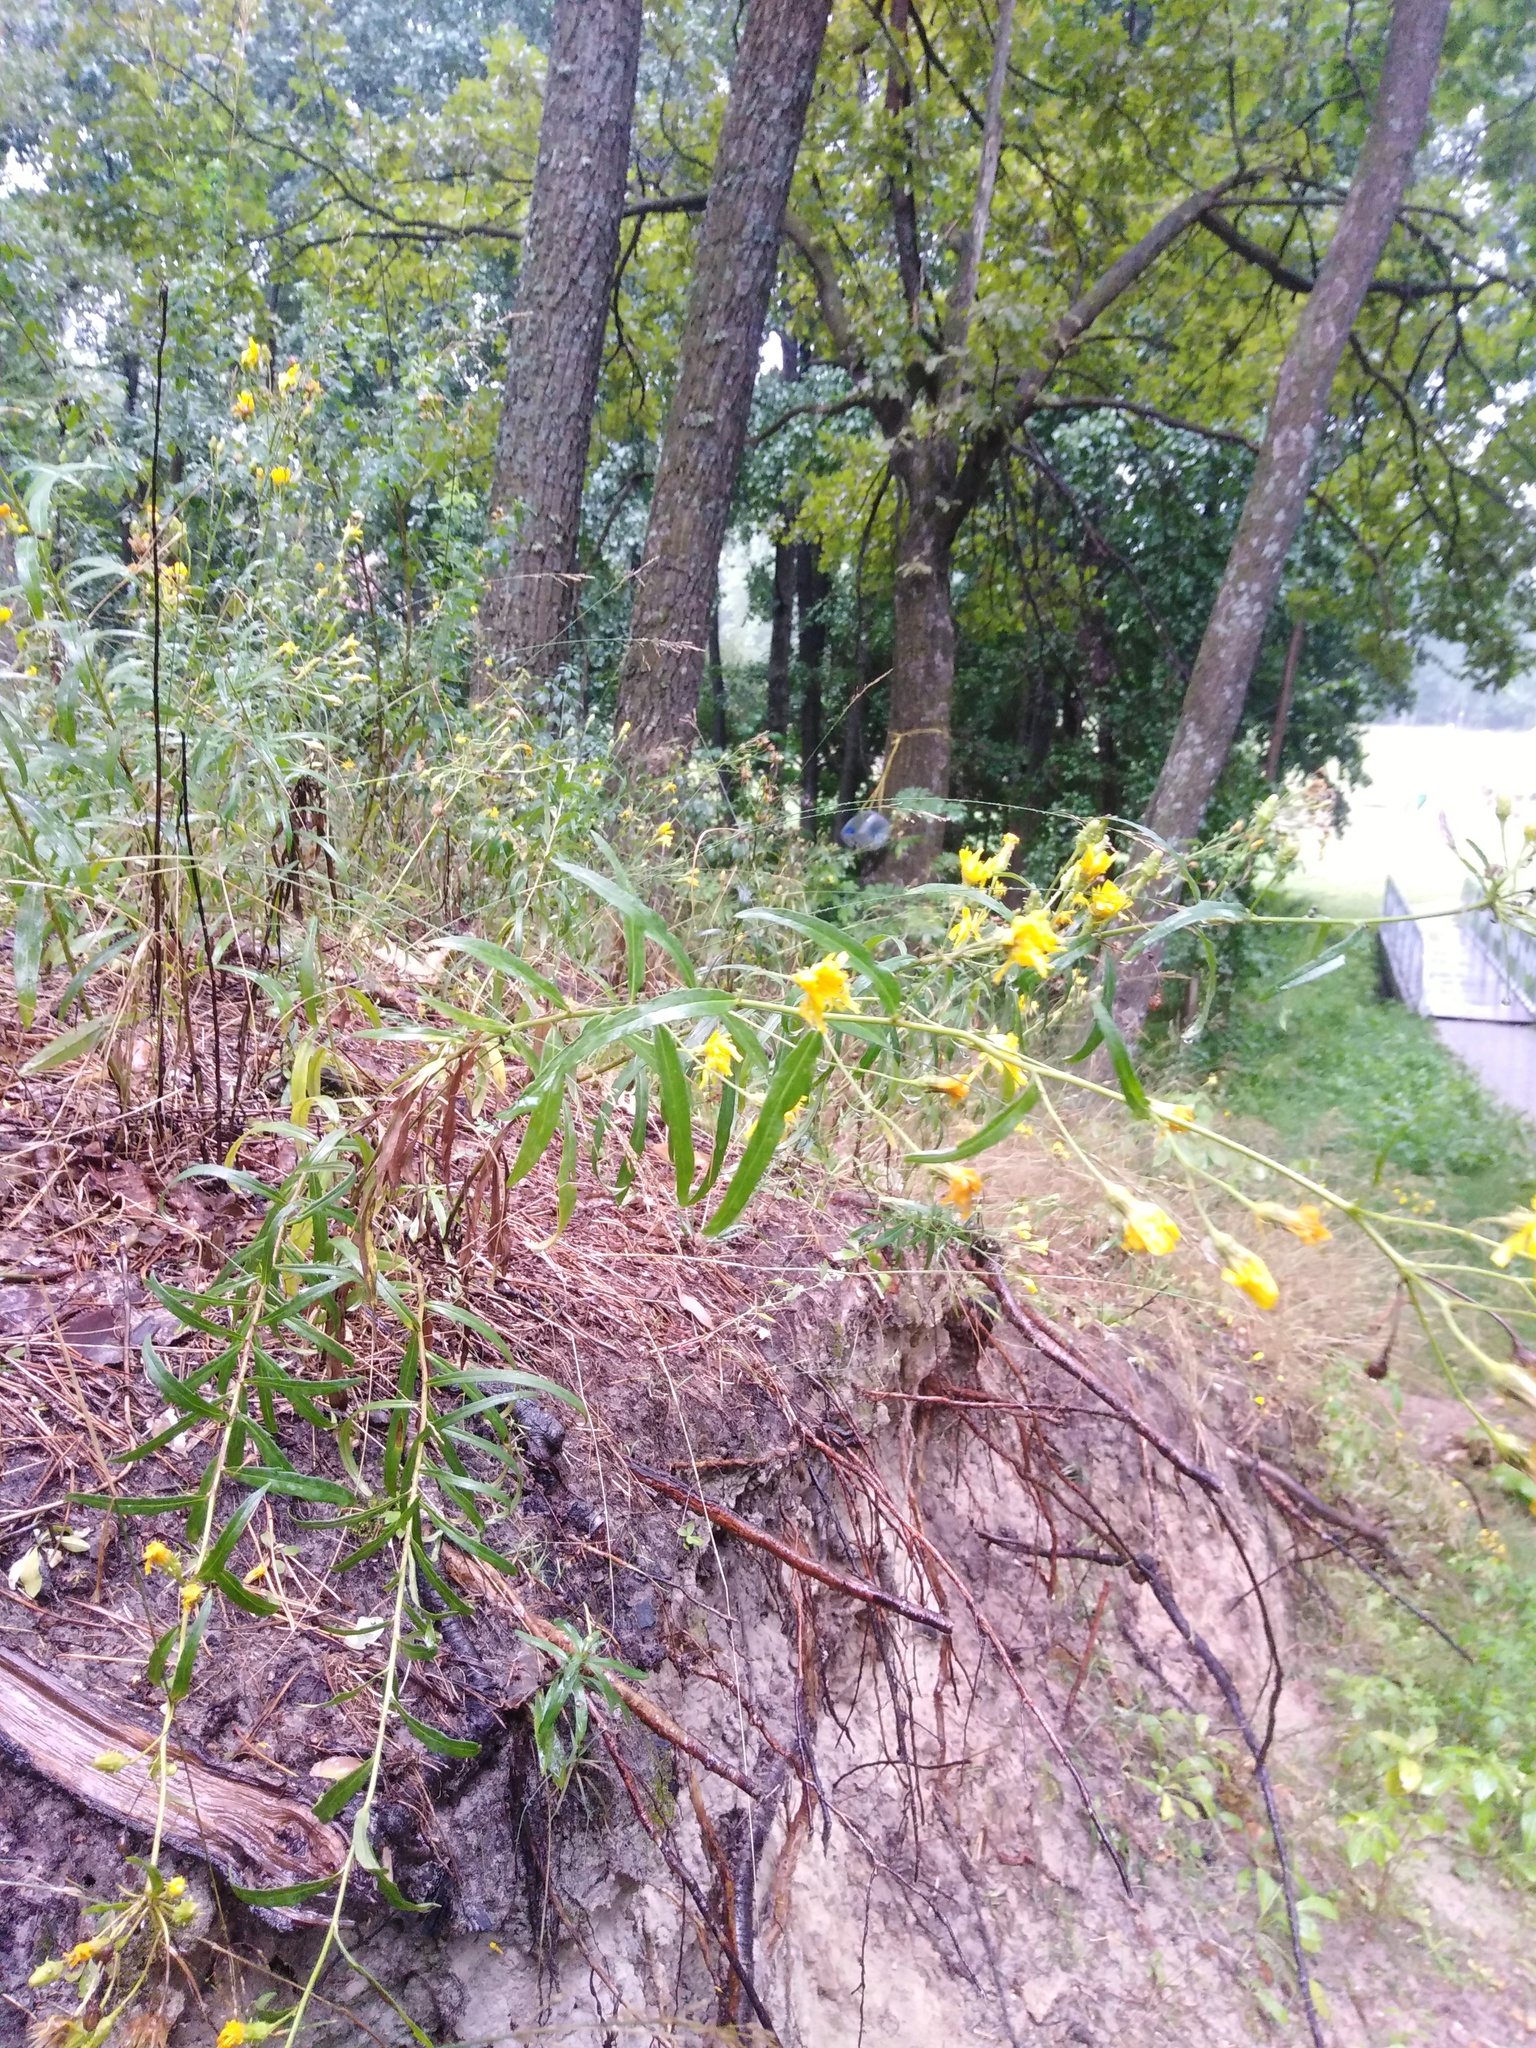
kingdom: Plantae
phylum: Tracheophyta
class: Magnoliopsida
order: Asterales
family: Asteraceae
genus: Hieracium
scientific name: Hieracium umbellatum
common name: Northern hawkweed
